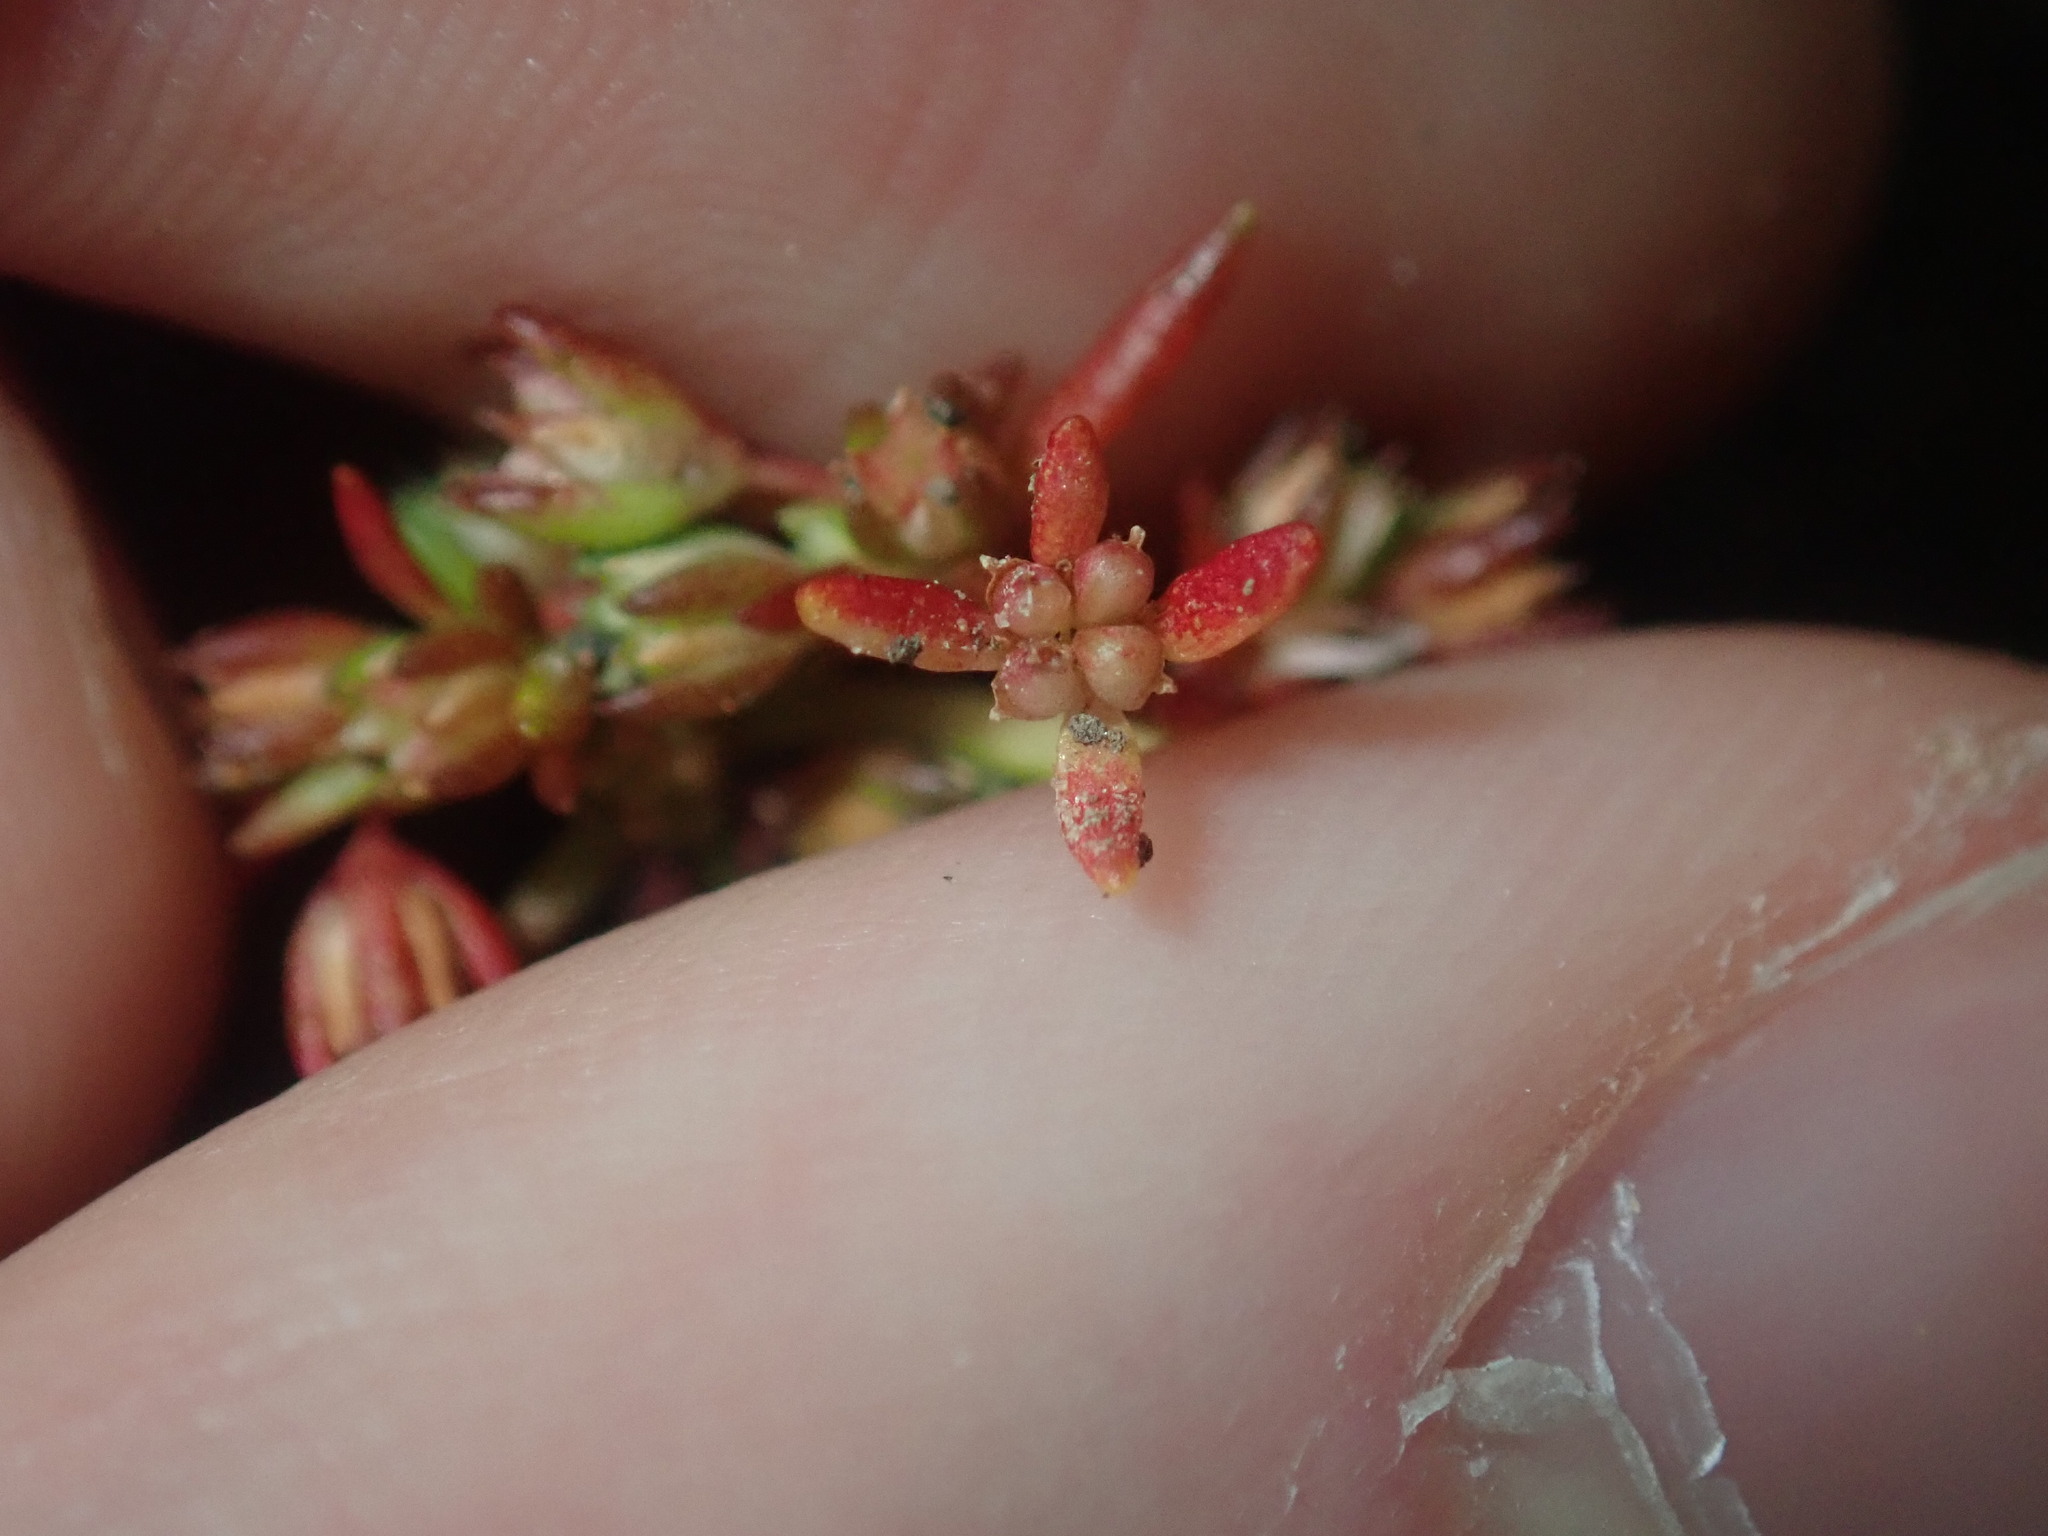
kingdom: Plantae
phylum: Tracheophyta
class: Magnoliopsida
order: Saxifragales
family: Crassulaceae
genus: Crassula
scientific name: Crassula decumbens
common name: Scilly pigmyweed
